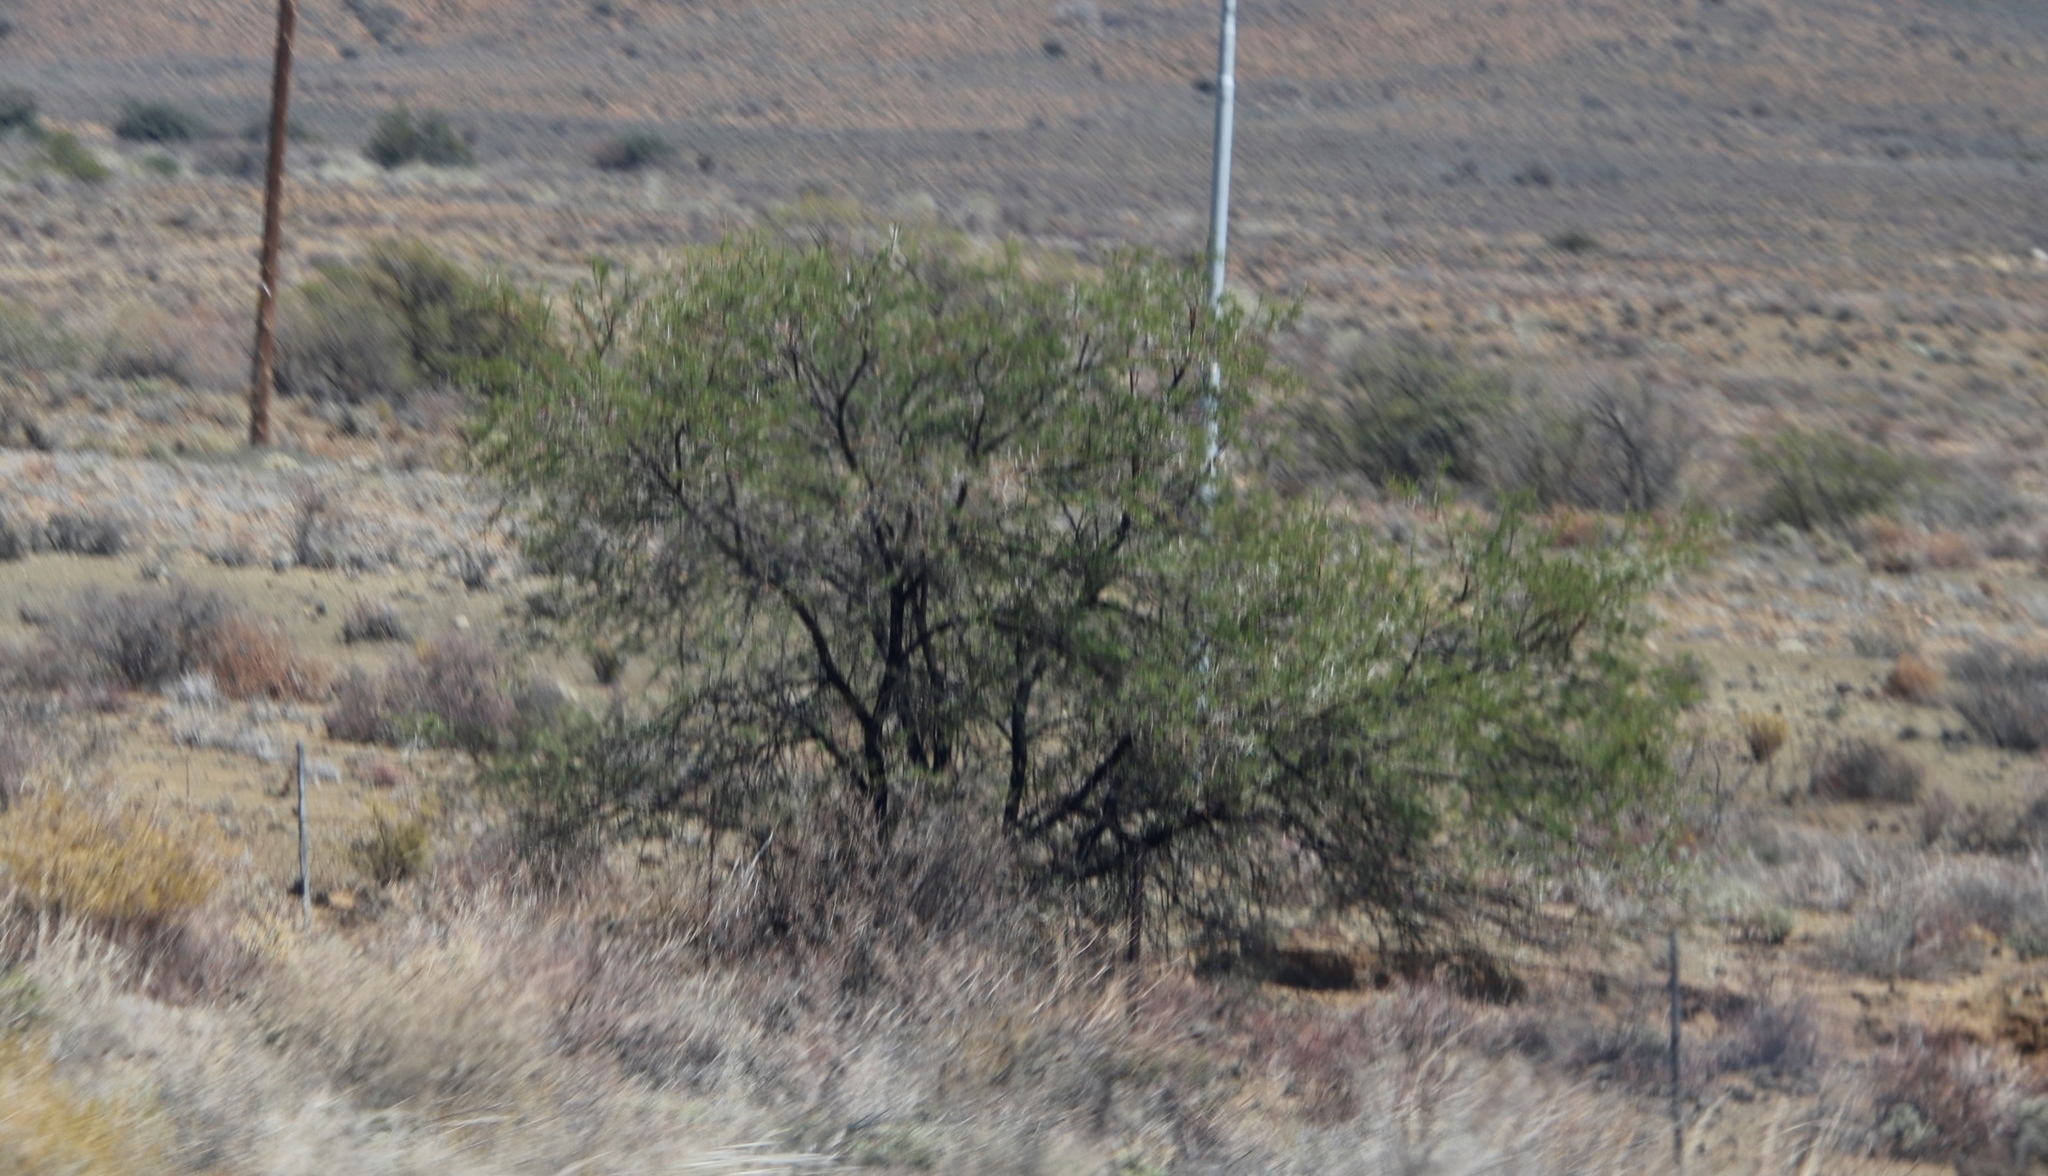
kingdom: Plantae
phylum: Tracheophyta
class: Magnoliopsida
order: Fabales
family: Fabaceae
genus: Vachellia
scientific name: Vachellia karroo
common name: Sweet thorn
